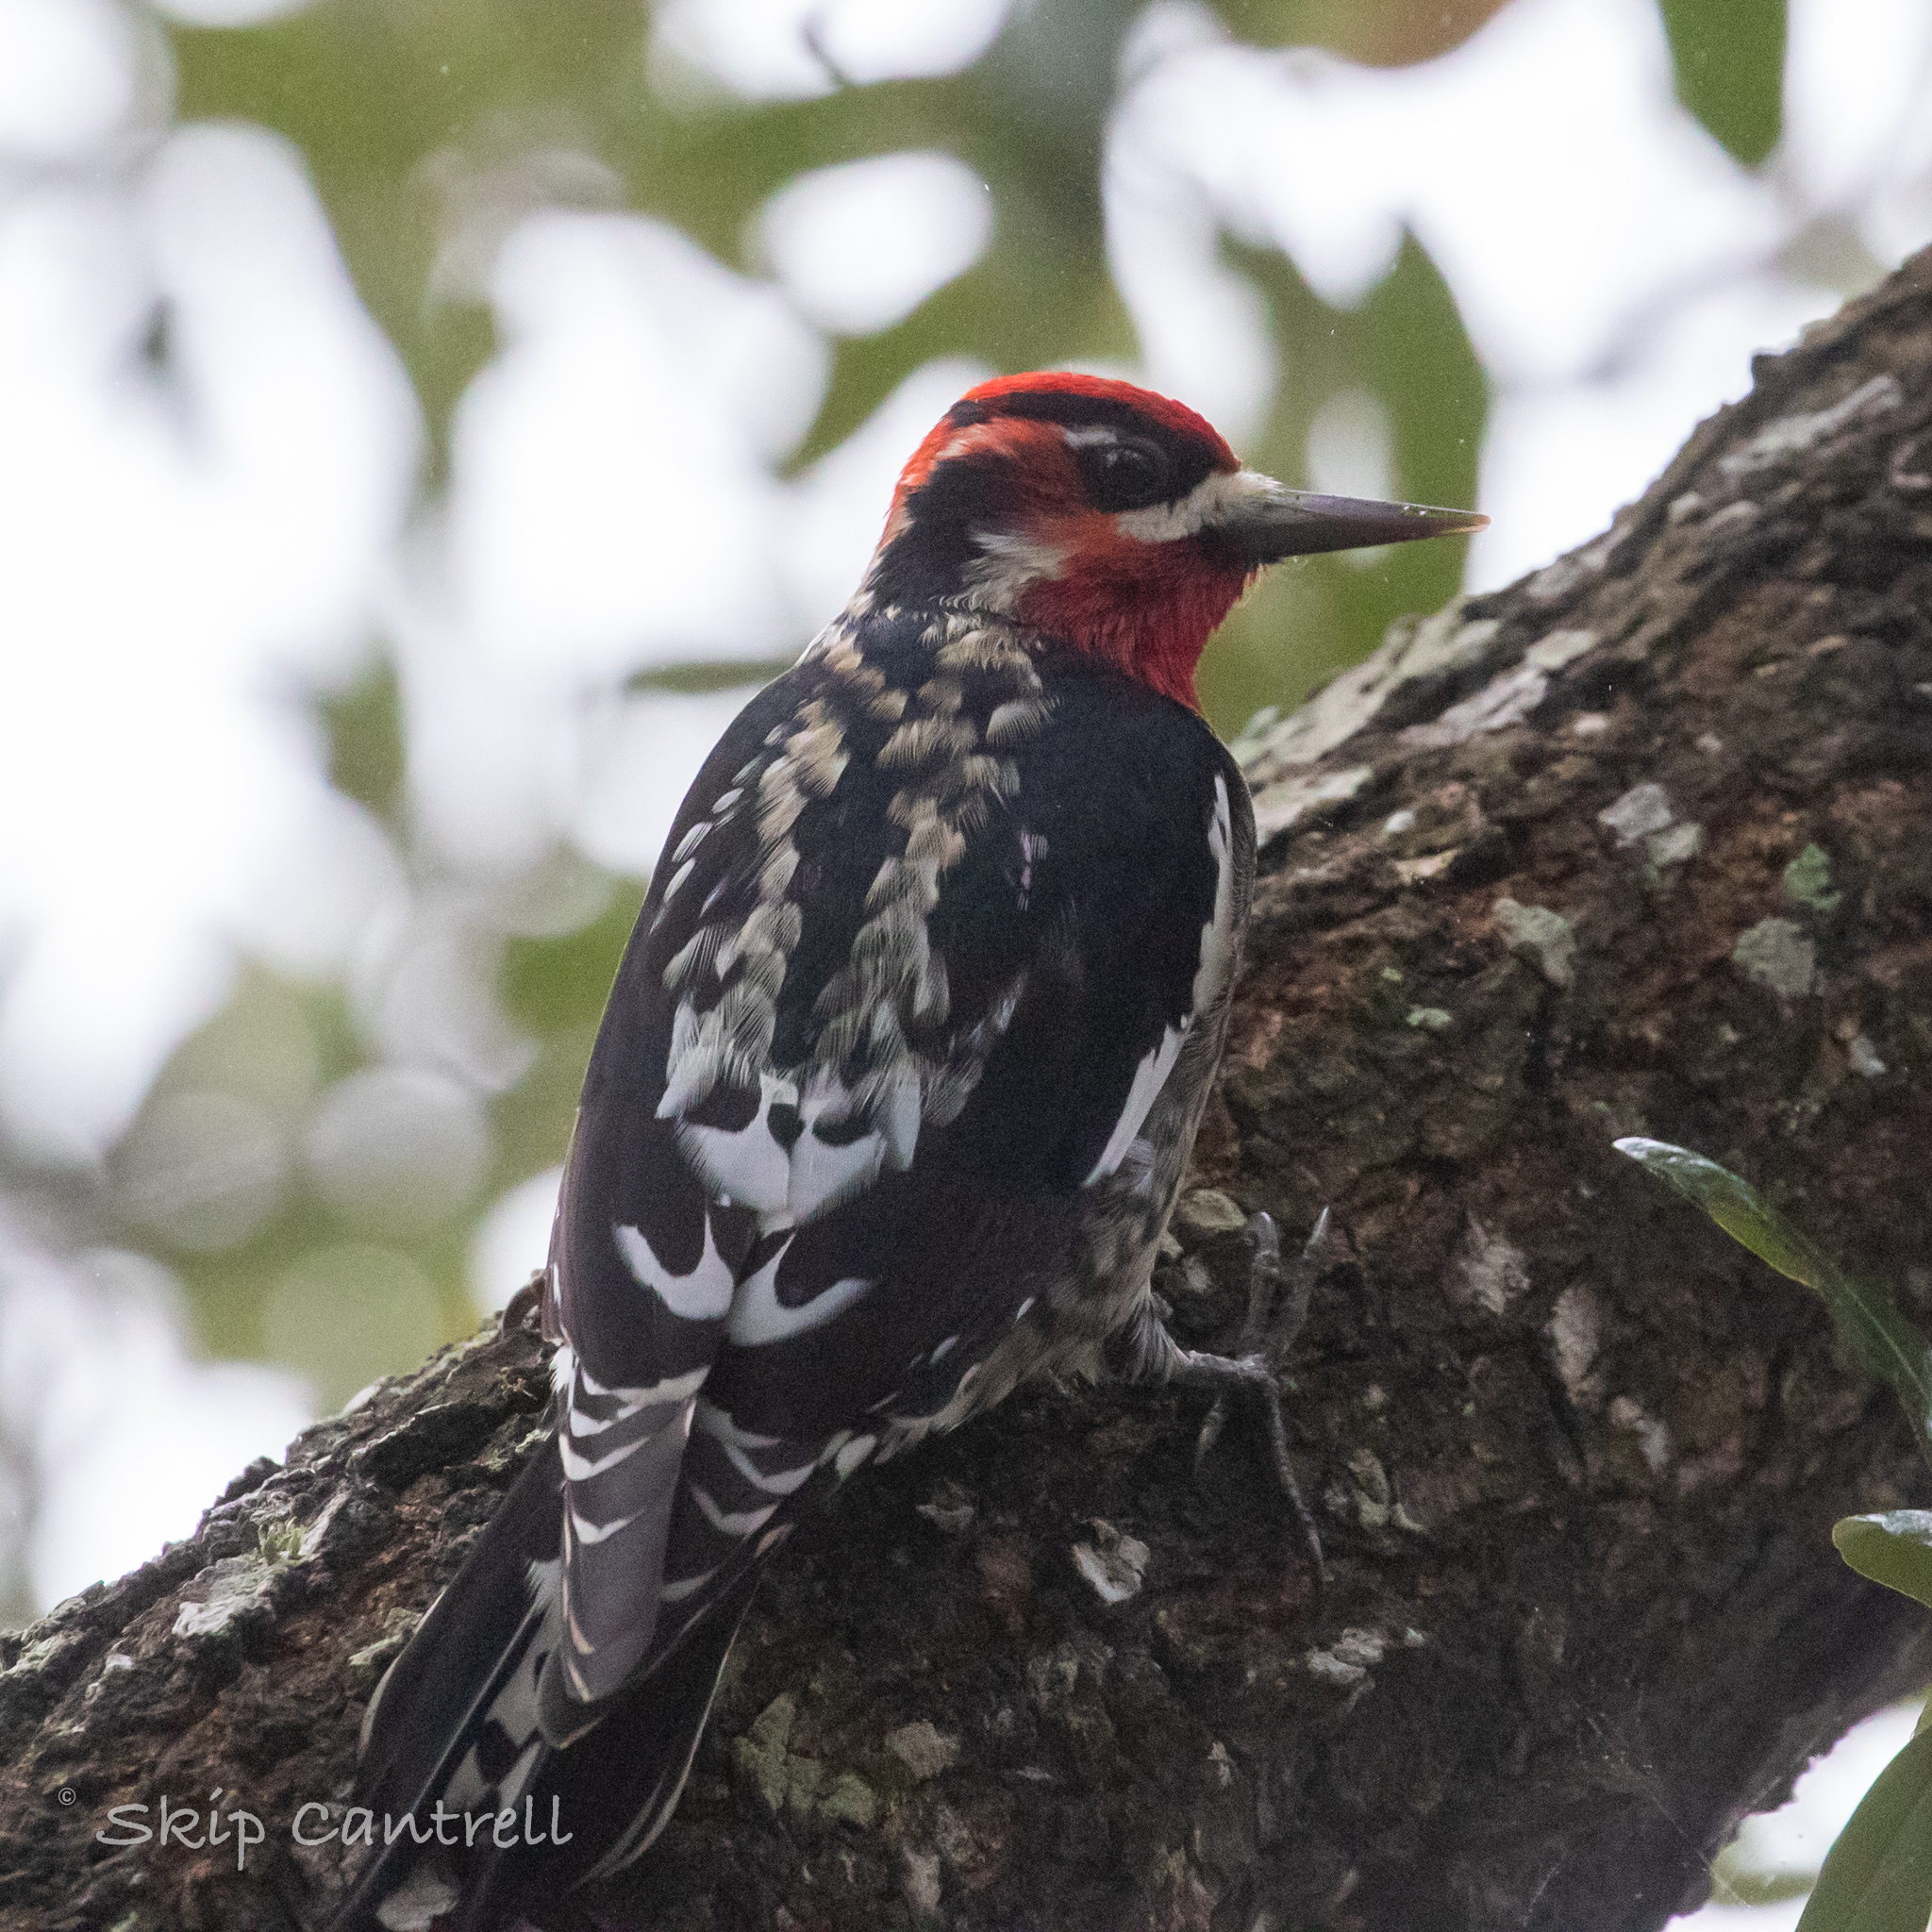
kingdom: Animalia
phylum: Chordata
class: Aves
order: Piciformes
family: Picidae
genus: Sphyrapicus
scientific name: Sphyrapicus nuchalis
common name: Red-naped sapsucker
